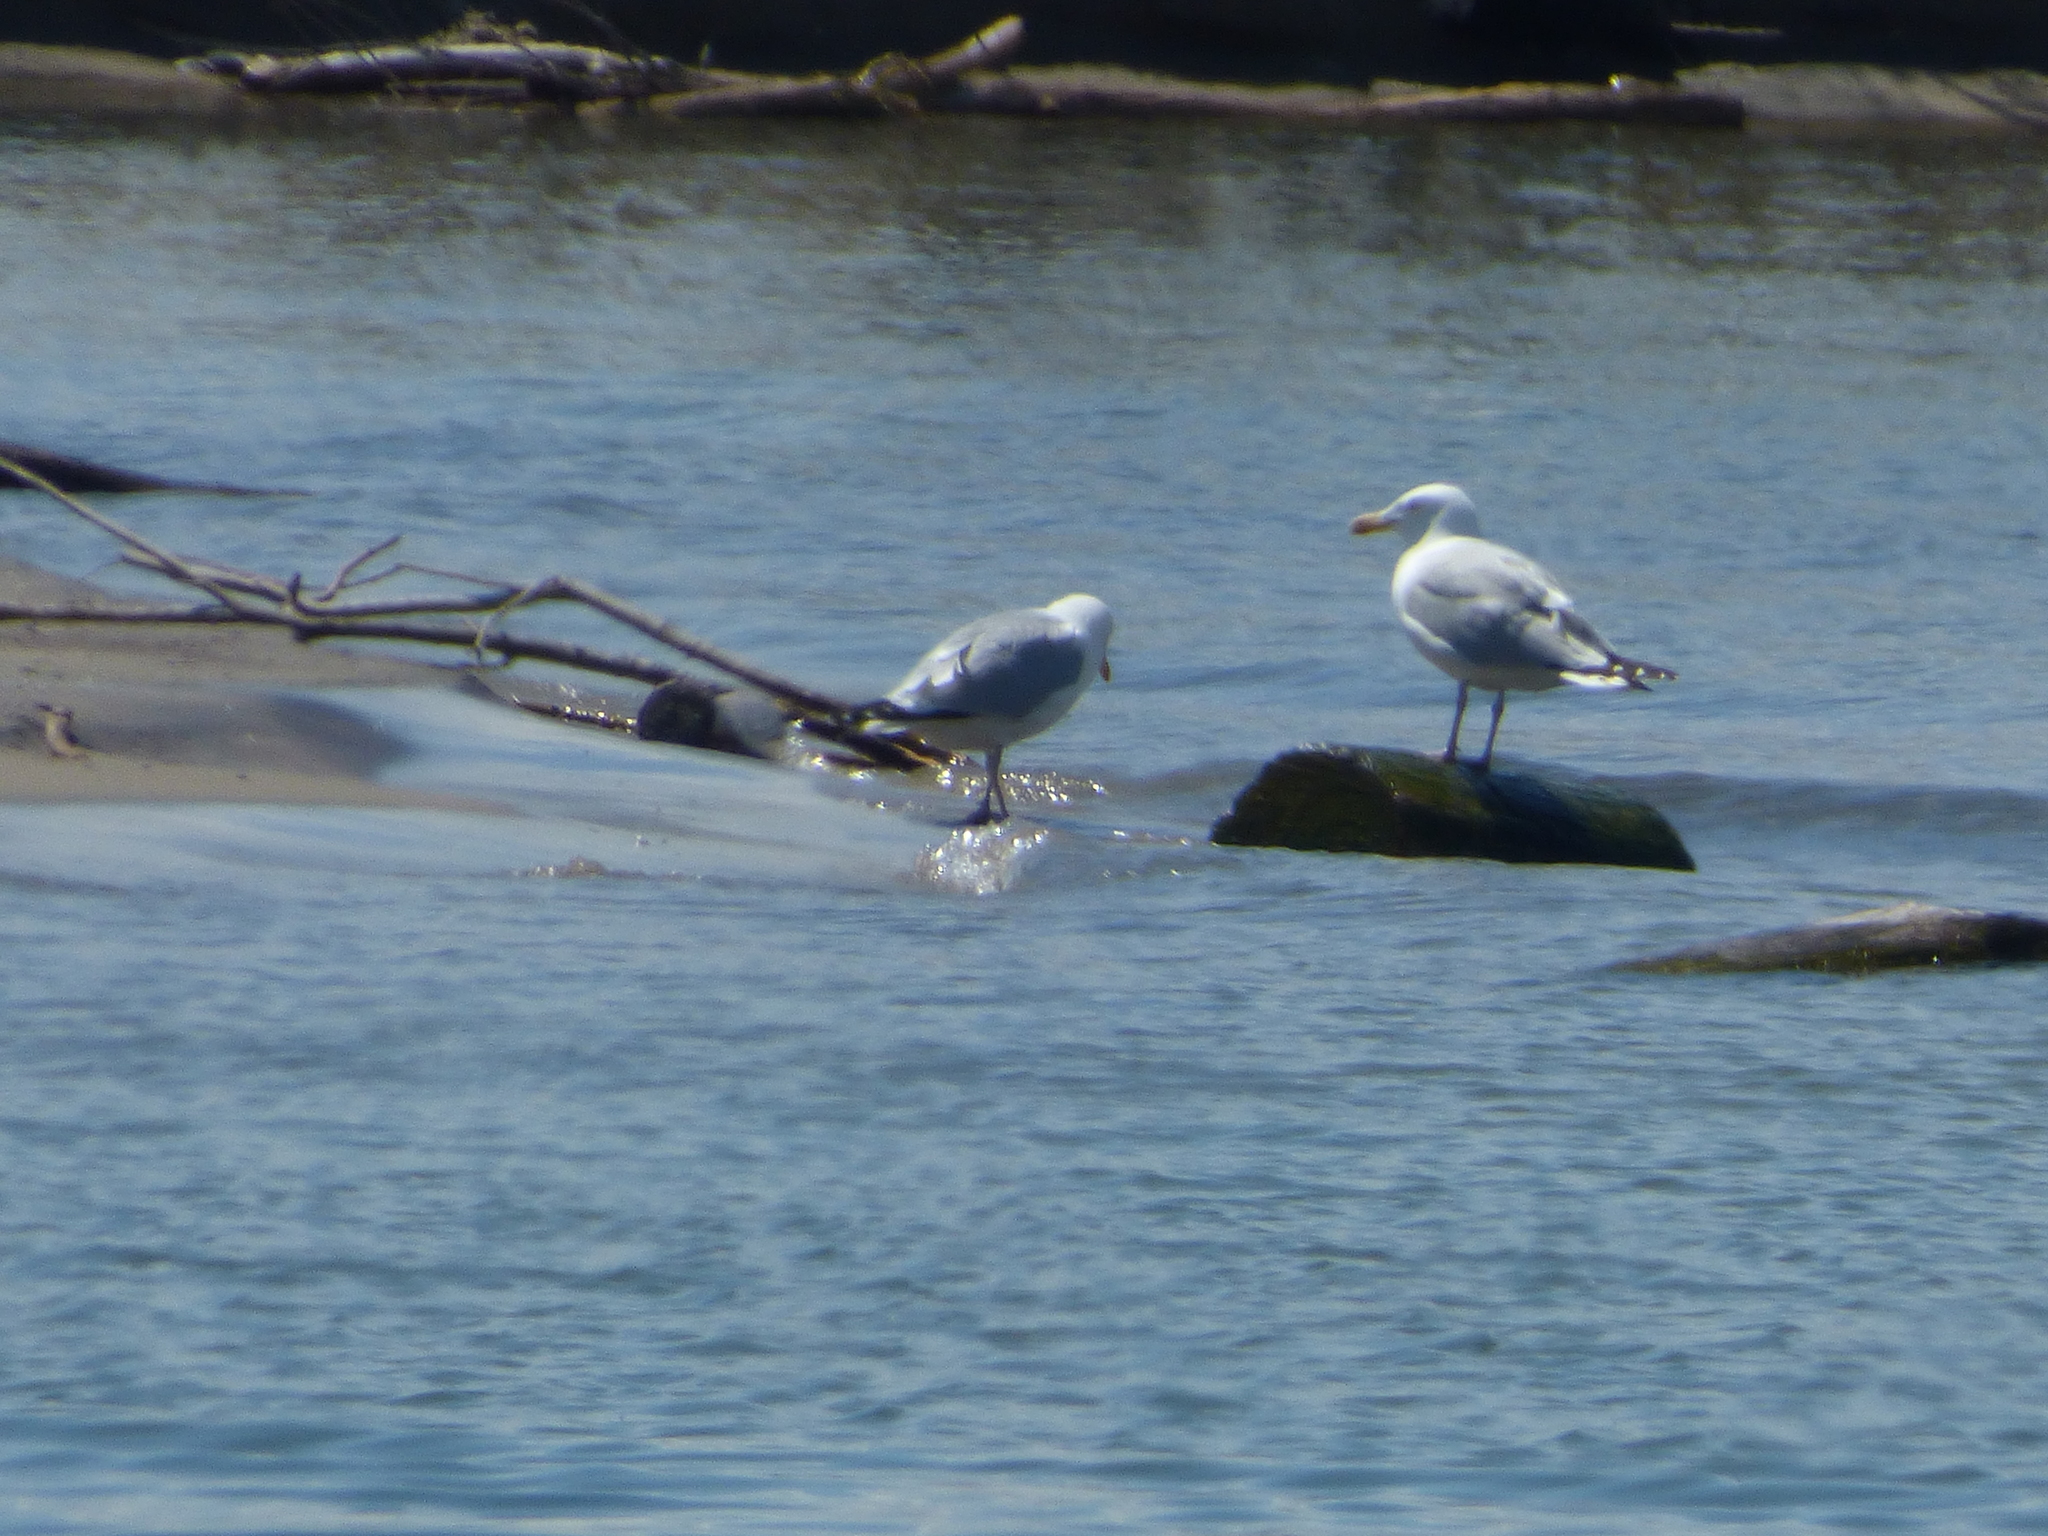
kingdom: Animalia
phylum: Chordata
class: Aves
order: Charadriiformes
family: Laridae
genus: Larus
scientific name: Larus argentatus
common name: Herring gull
